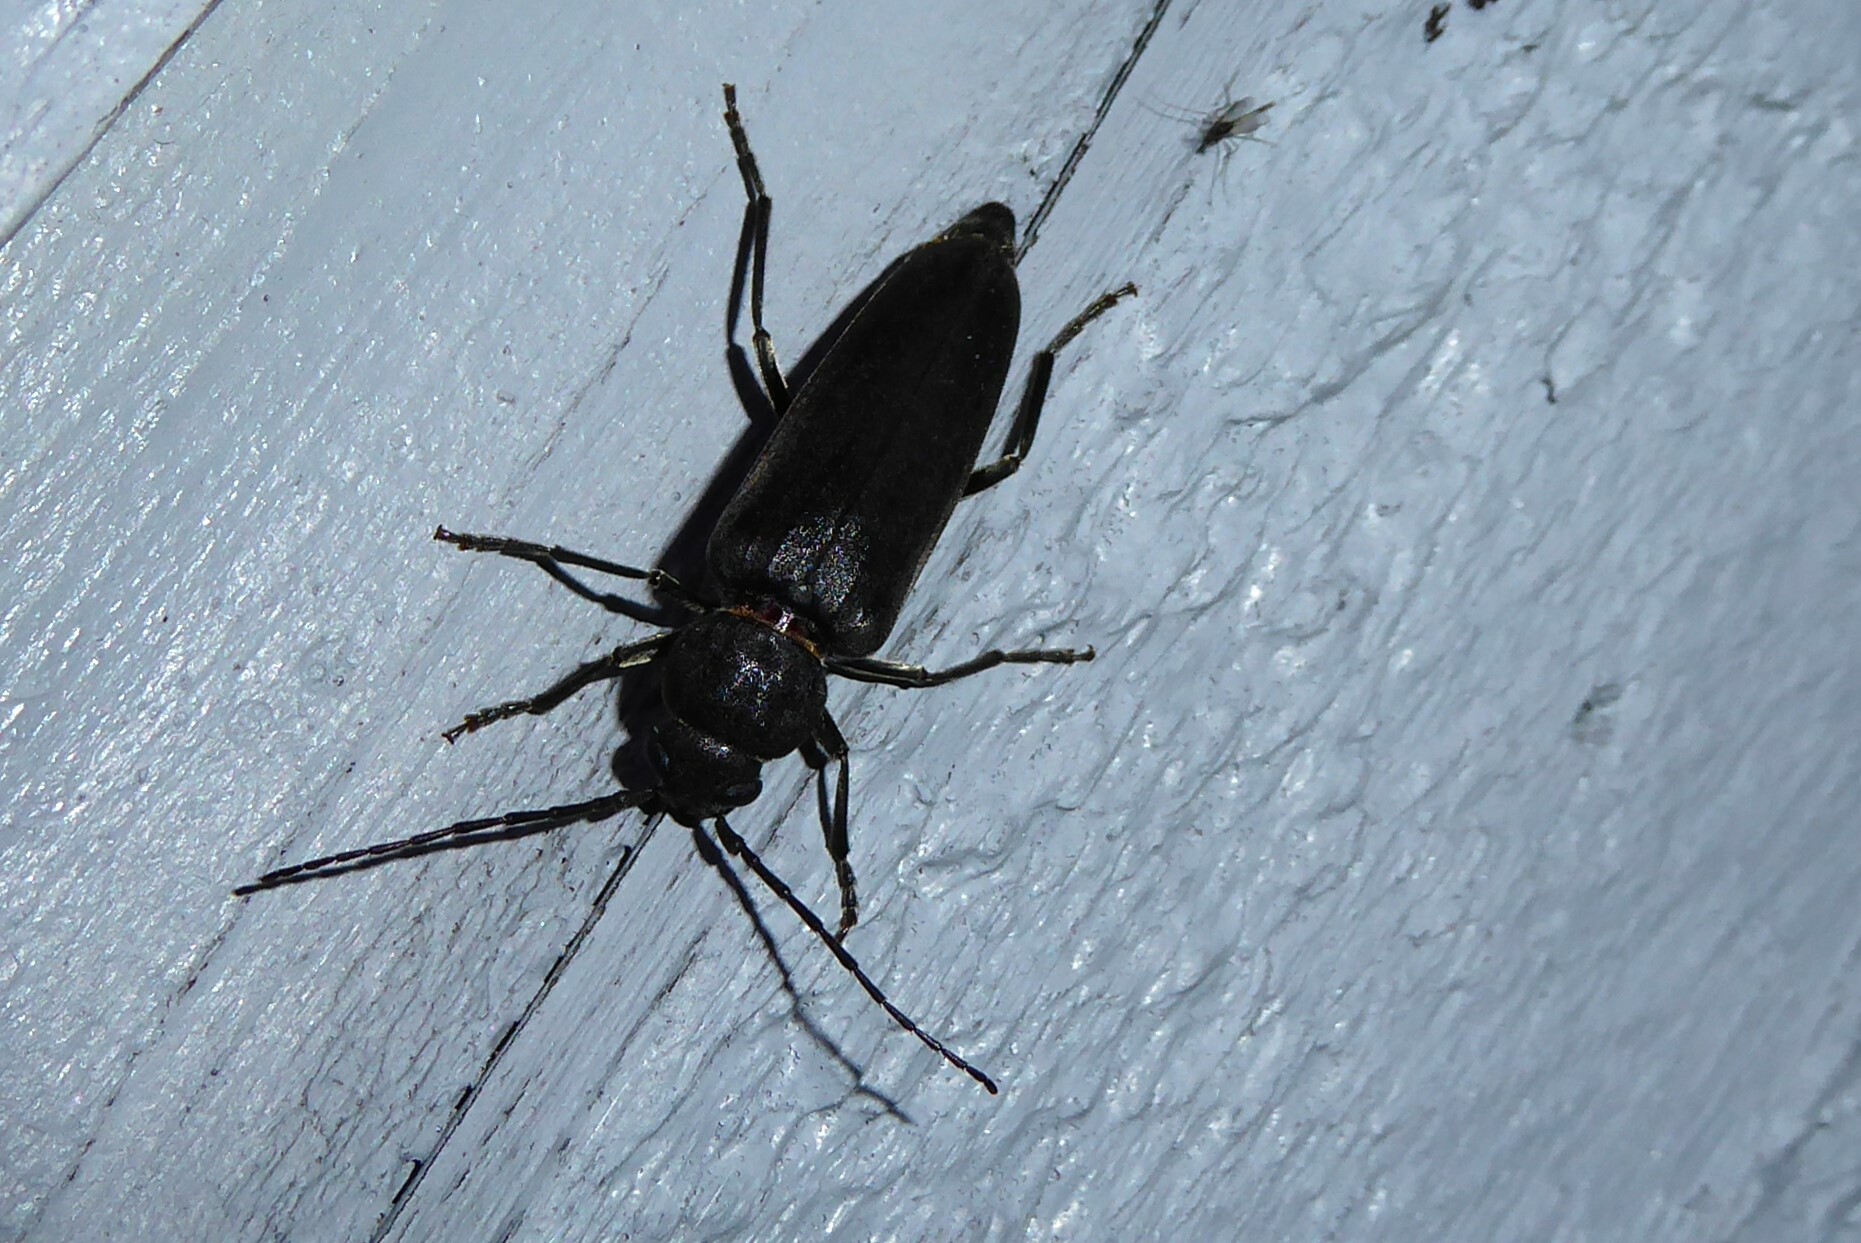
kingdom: Animalia
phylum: Arthropoda
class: Insecta
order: Coleoptera
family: Cerambycidae
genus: Arhopalus
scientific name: Arhopalus ferus
